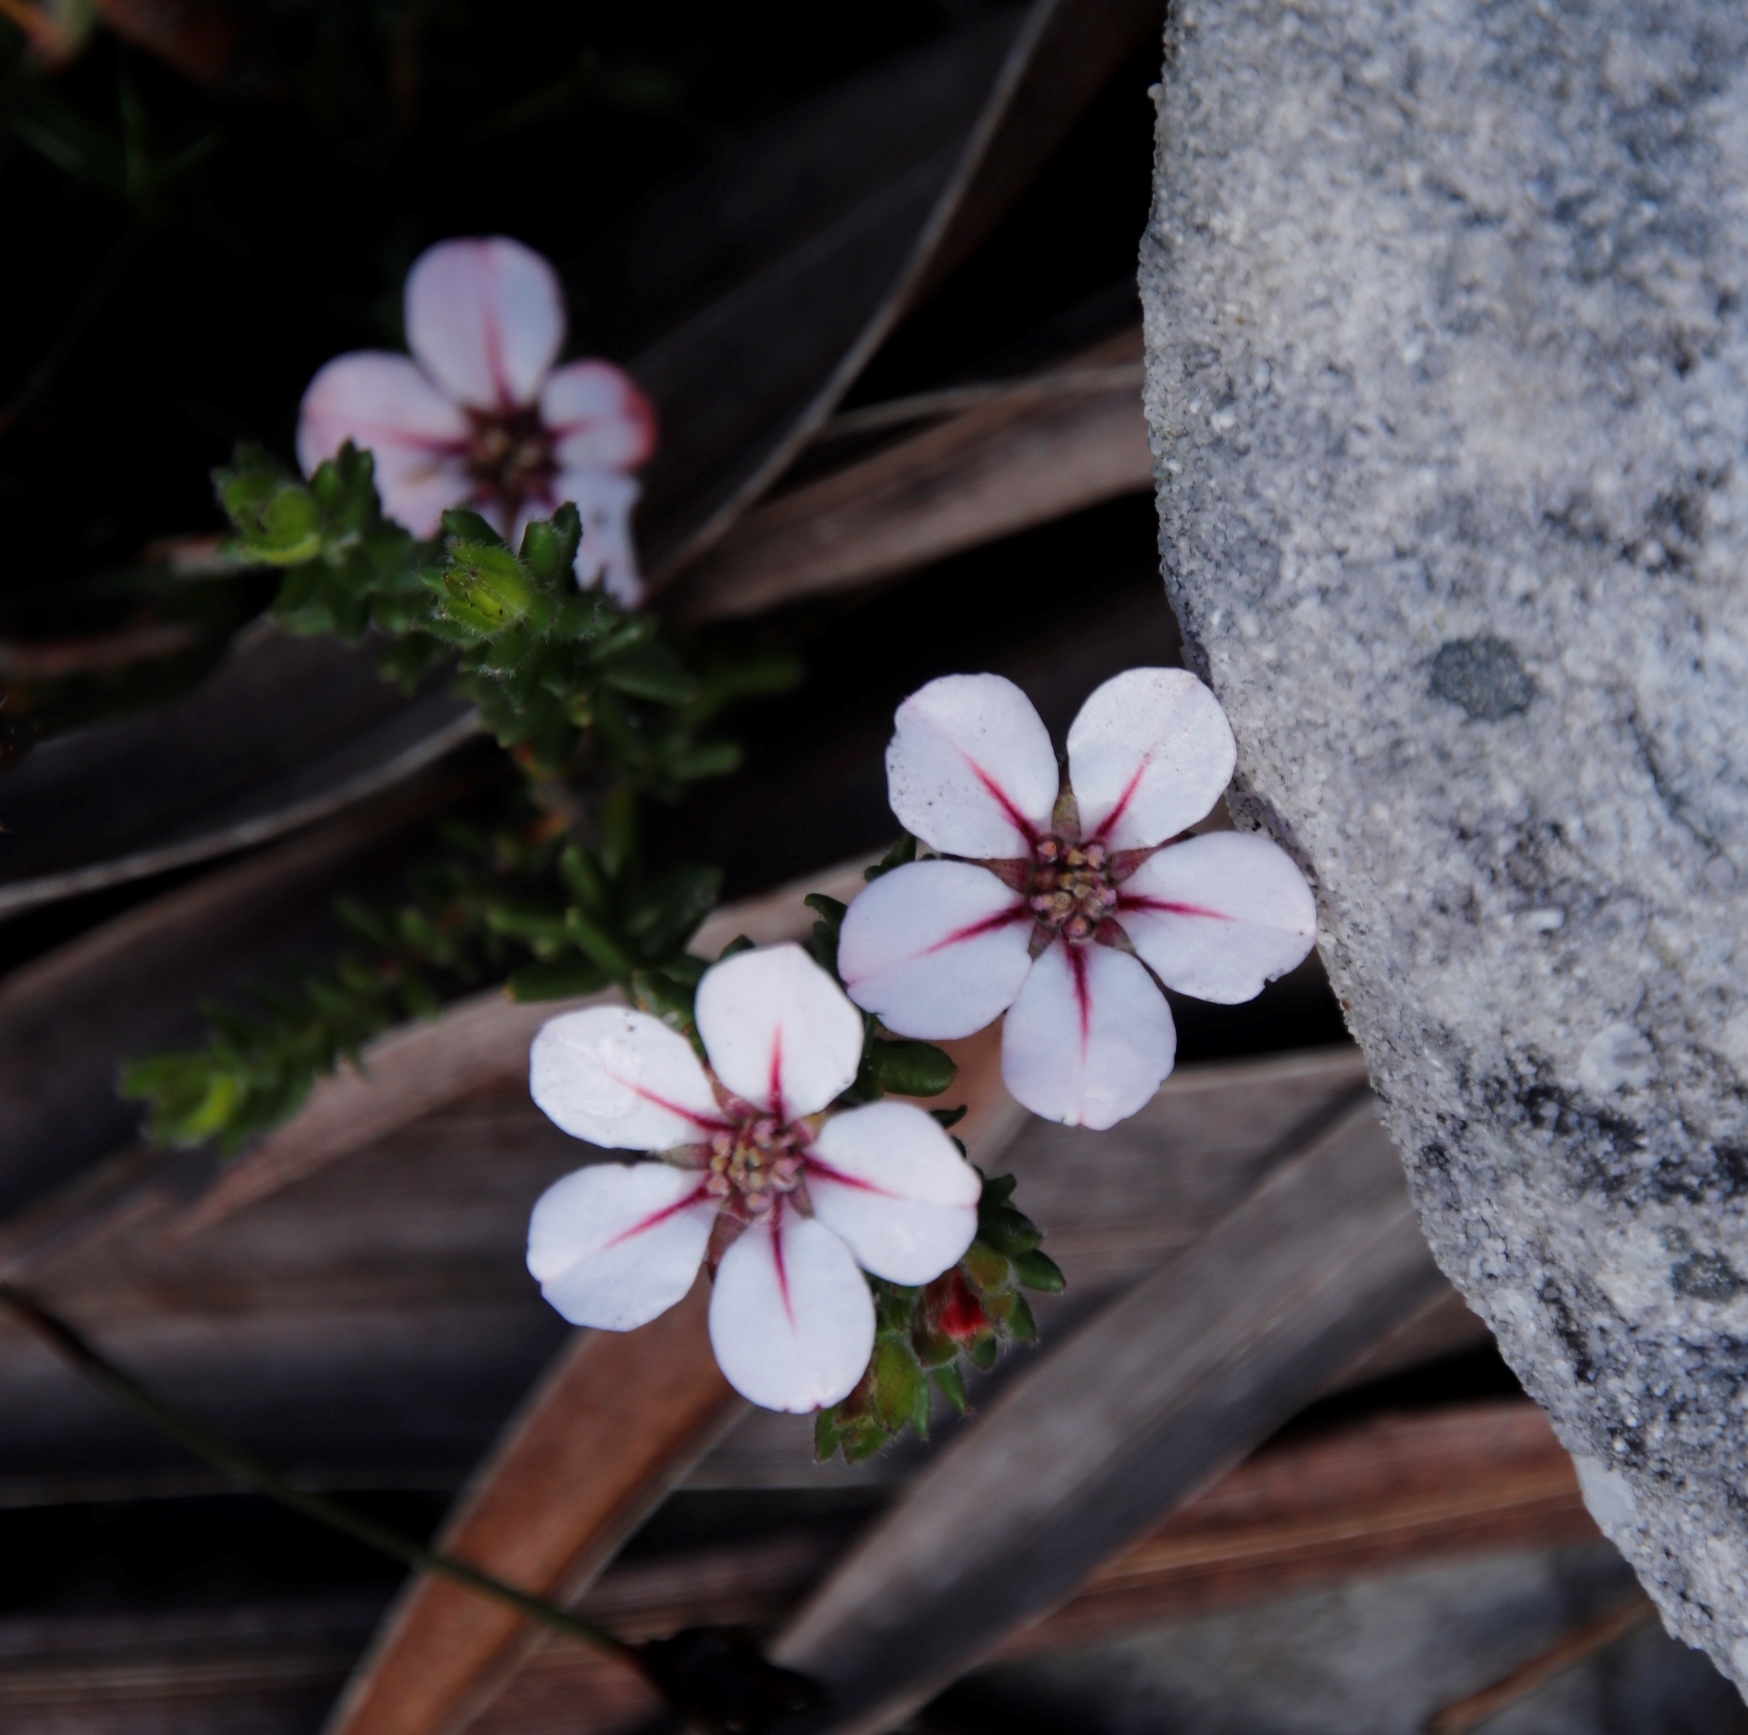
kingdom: Plantae
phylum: Tracheophyta
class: Magnoliopsida
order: Sapindales
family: Rutaceae
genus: Adenandra
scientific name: Adenandra uniflora
